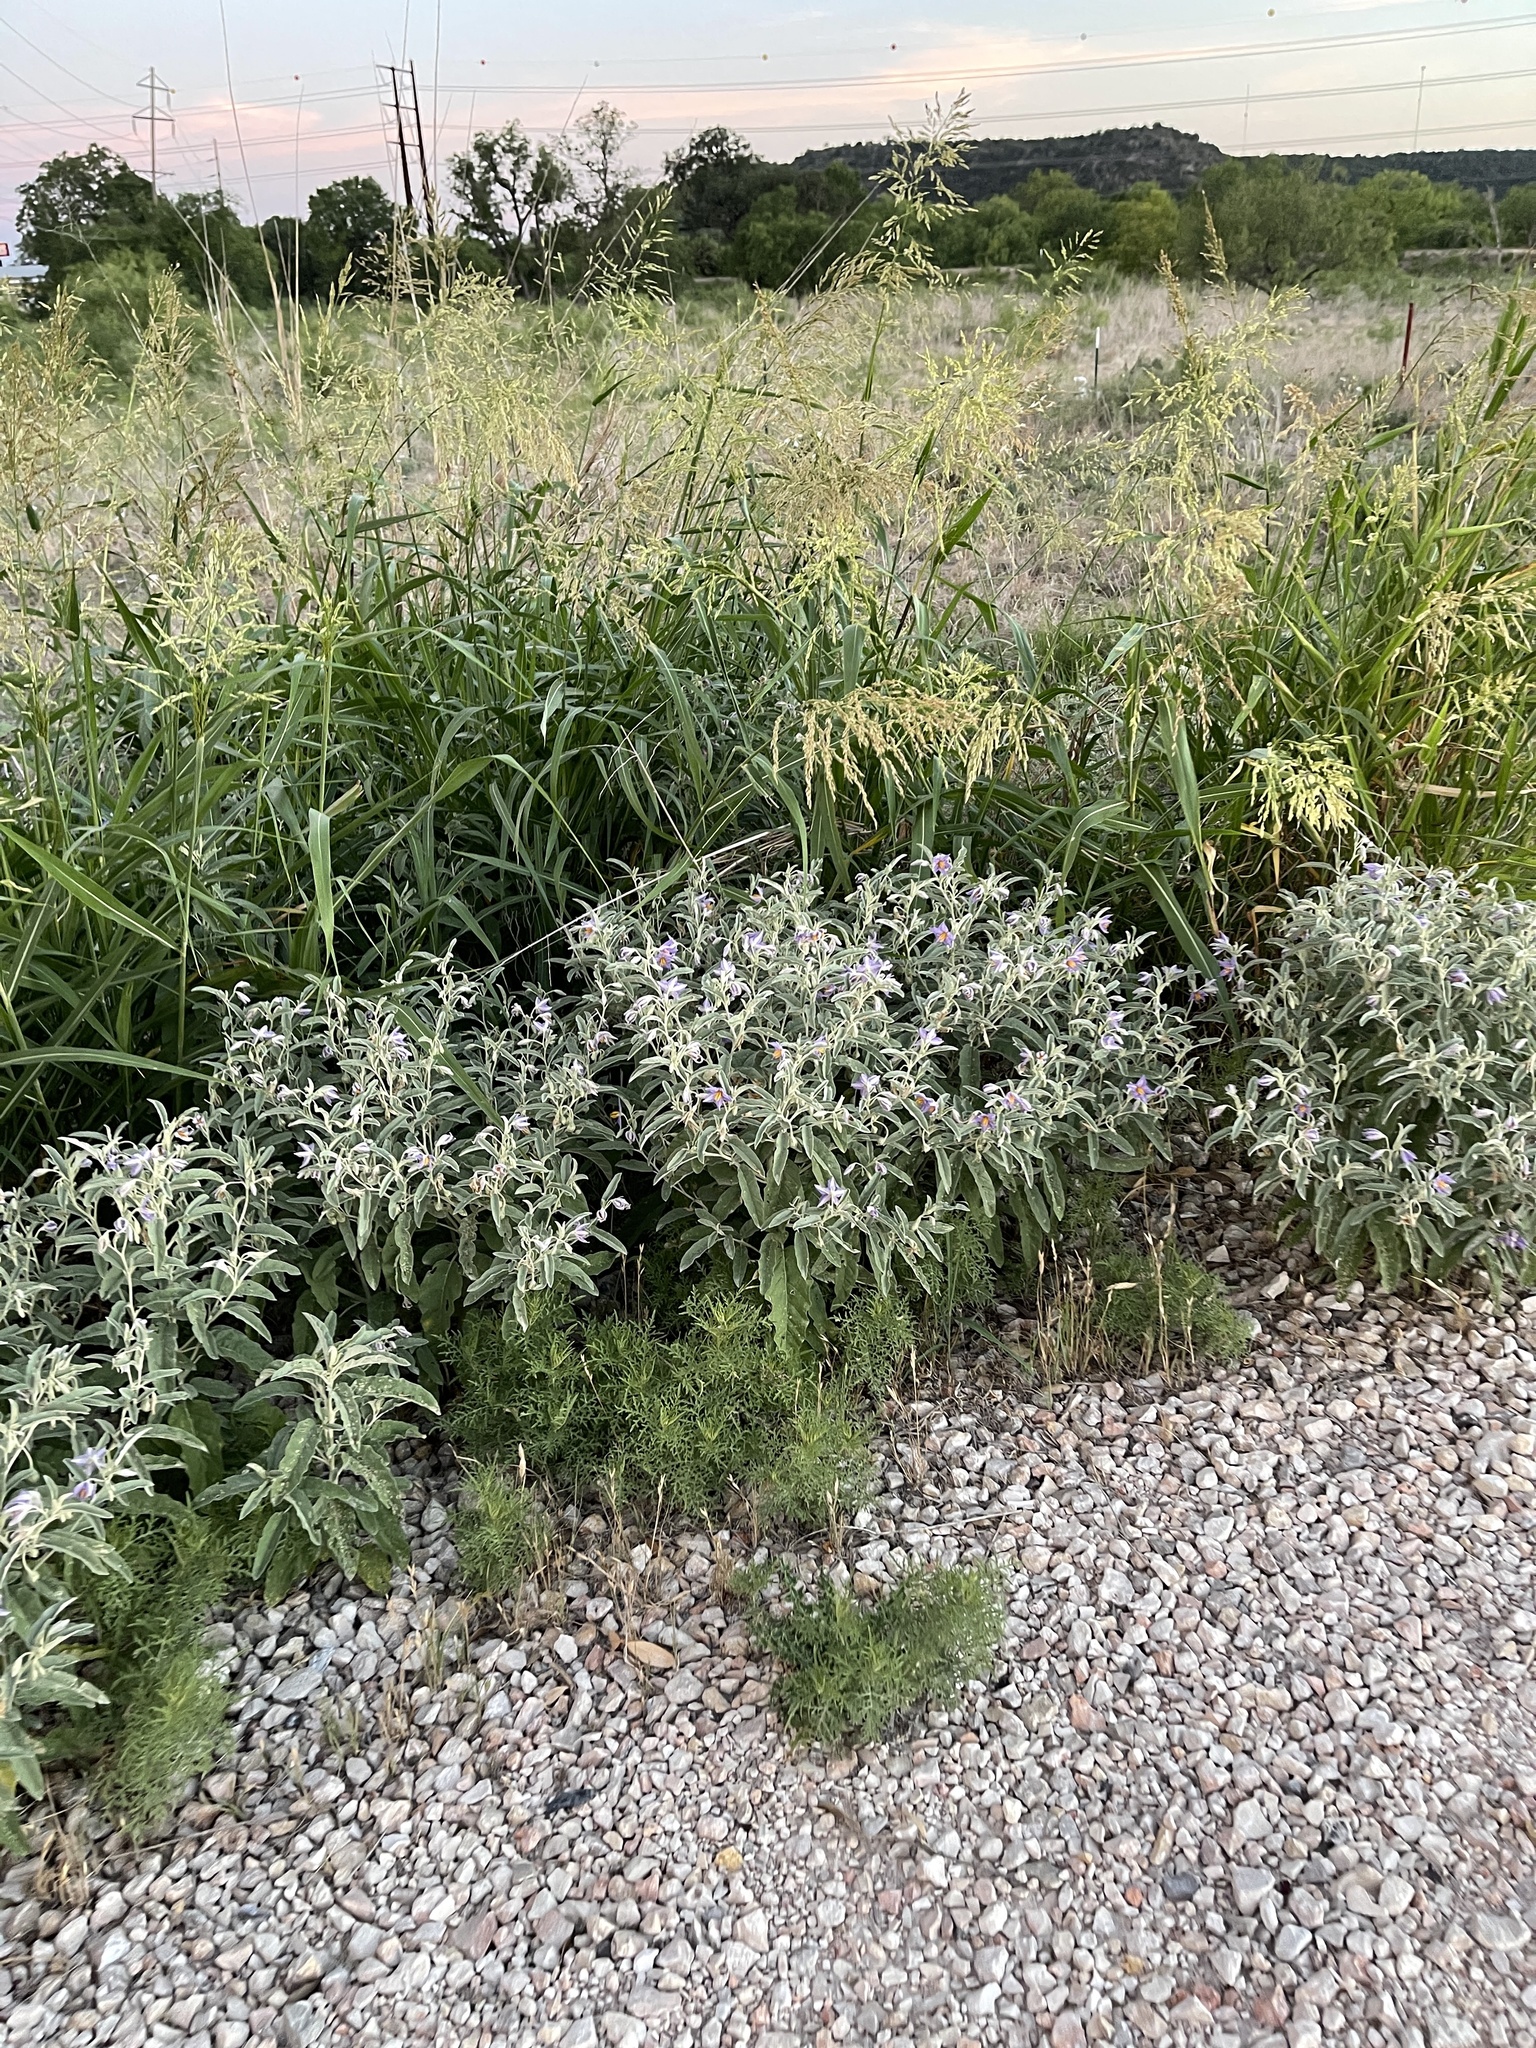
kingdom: Plantae
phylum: Tracheophyta
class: Magnoliopsida
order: Solanales
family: Solanaceae
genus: Solanum
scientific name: Solanum elaeagnifolium
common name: Silverleaf nightshade
